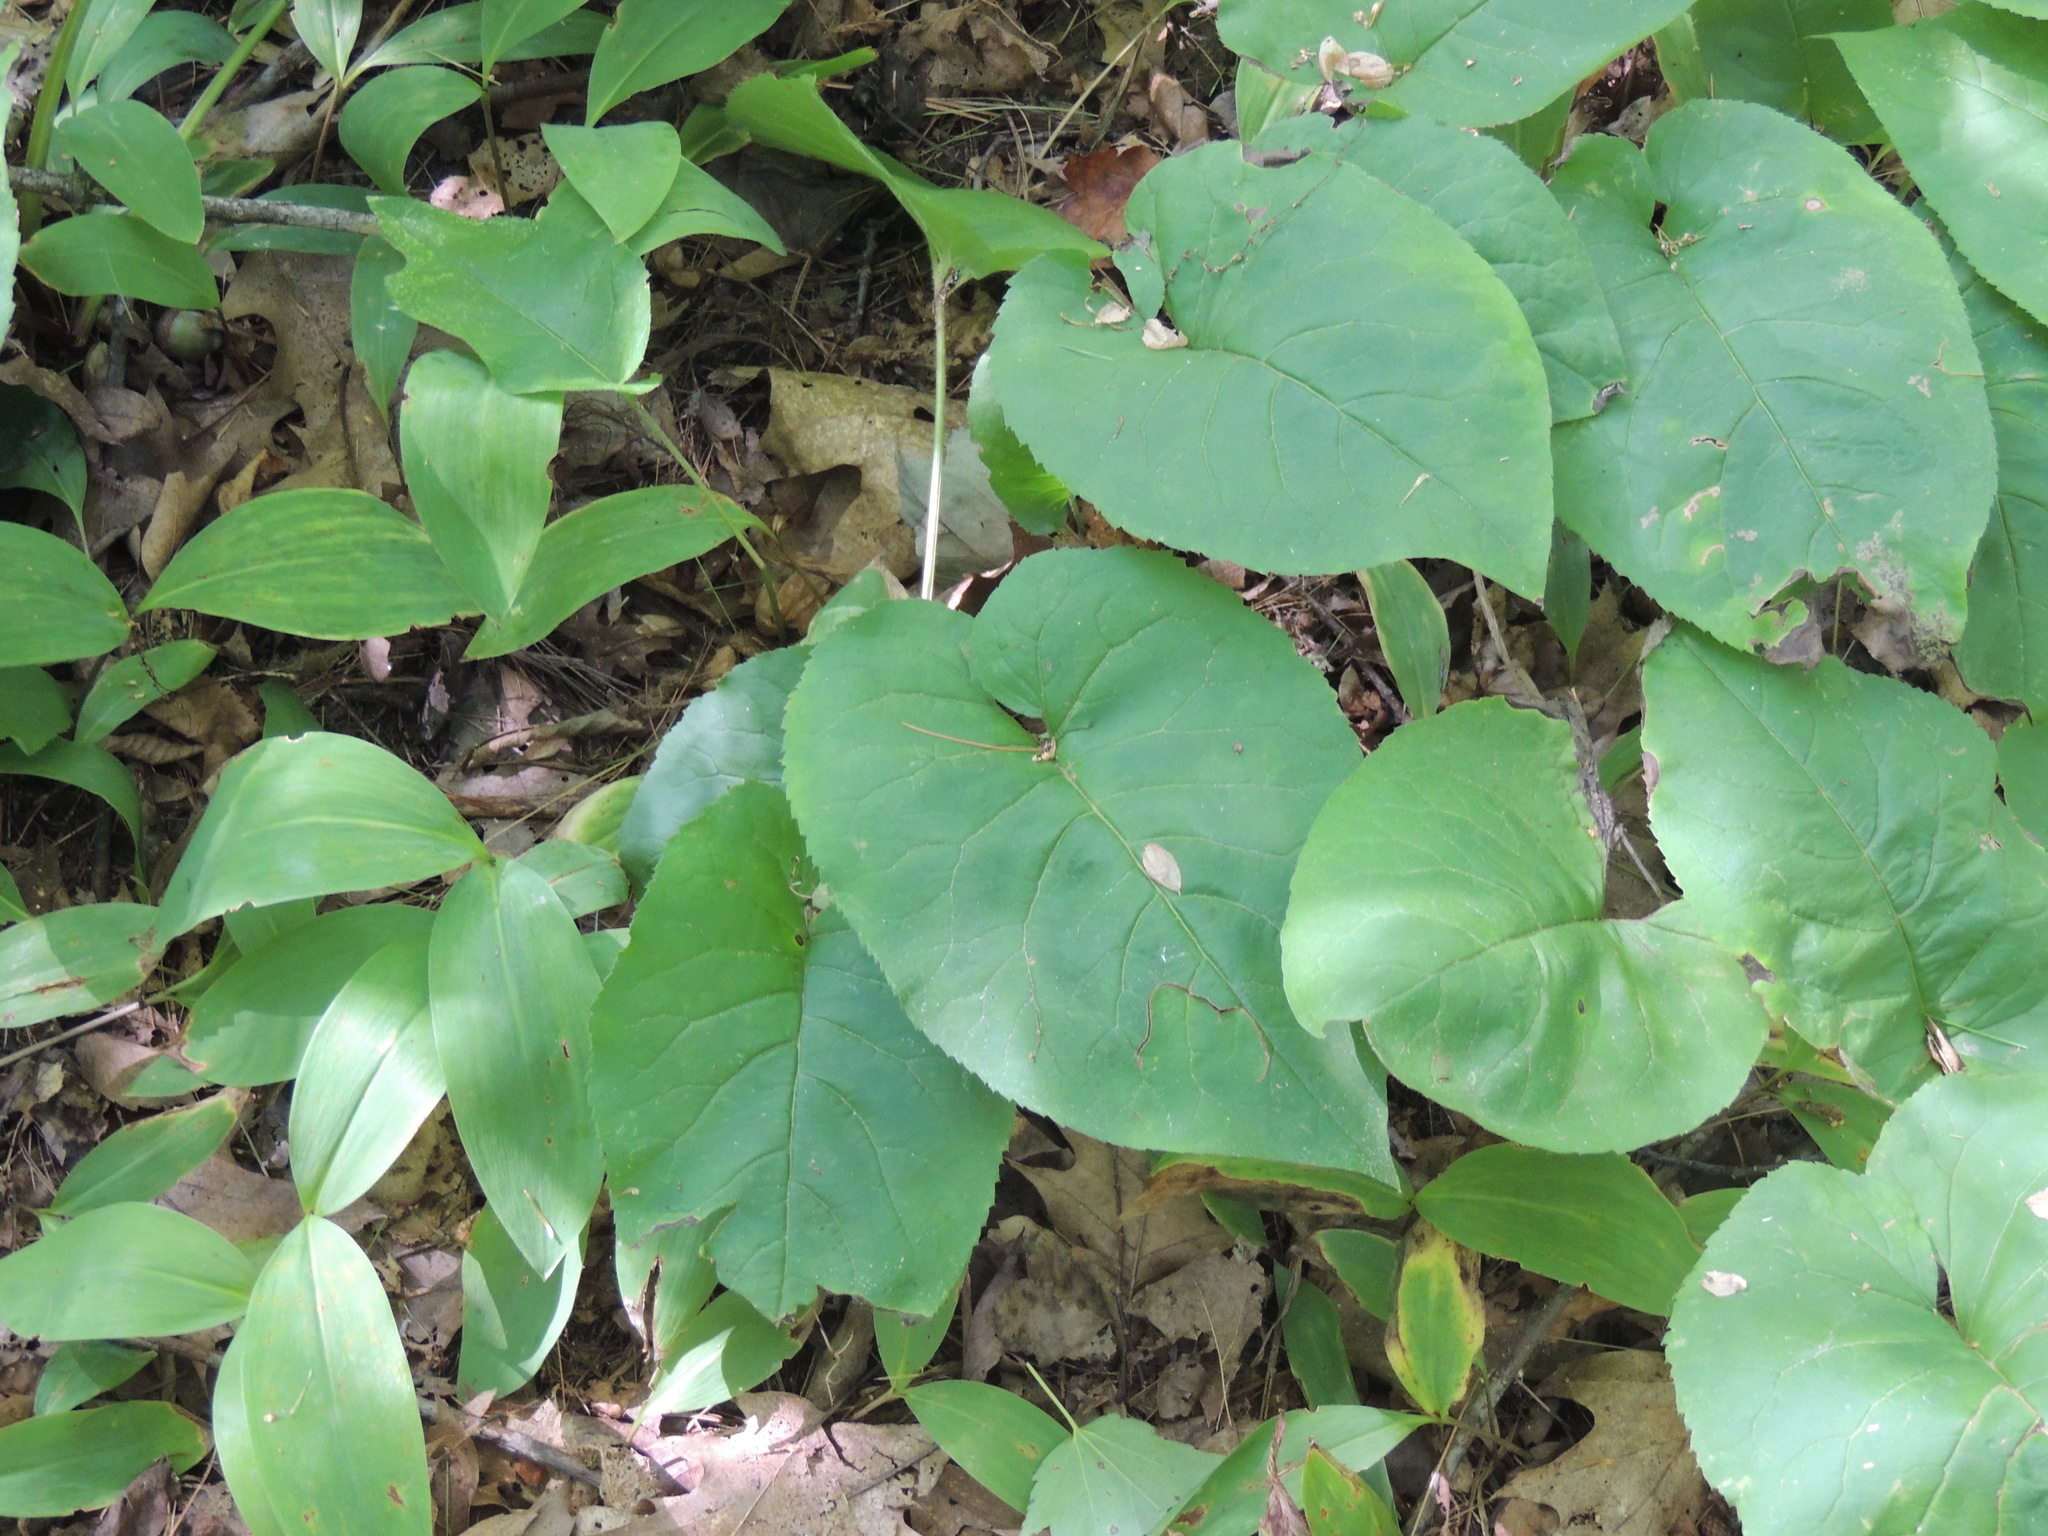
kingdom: Plantae
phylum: Tracheophyta
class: Magnoliopsida
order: Asterales
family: Asteraceae
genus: Eurybia
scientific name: Eurybia macrophylla
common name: Big-leaved aster
